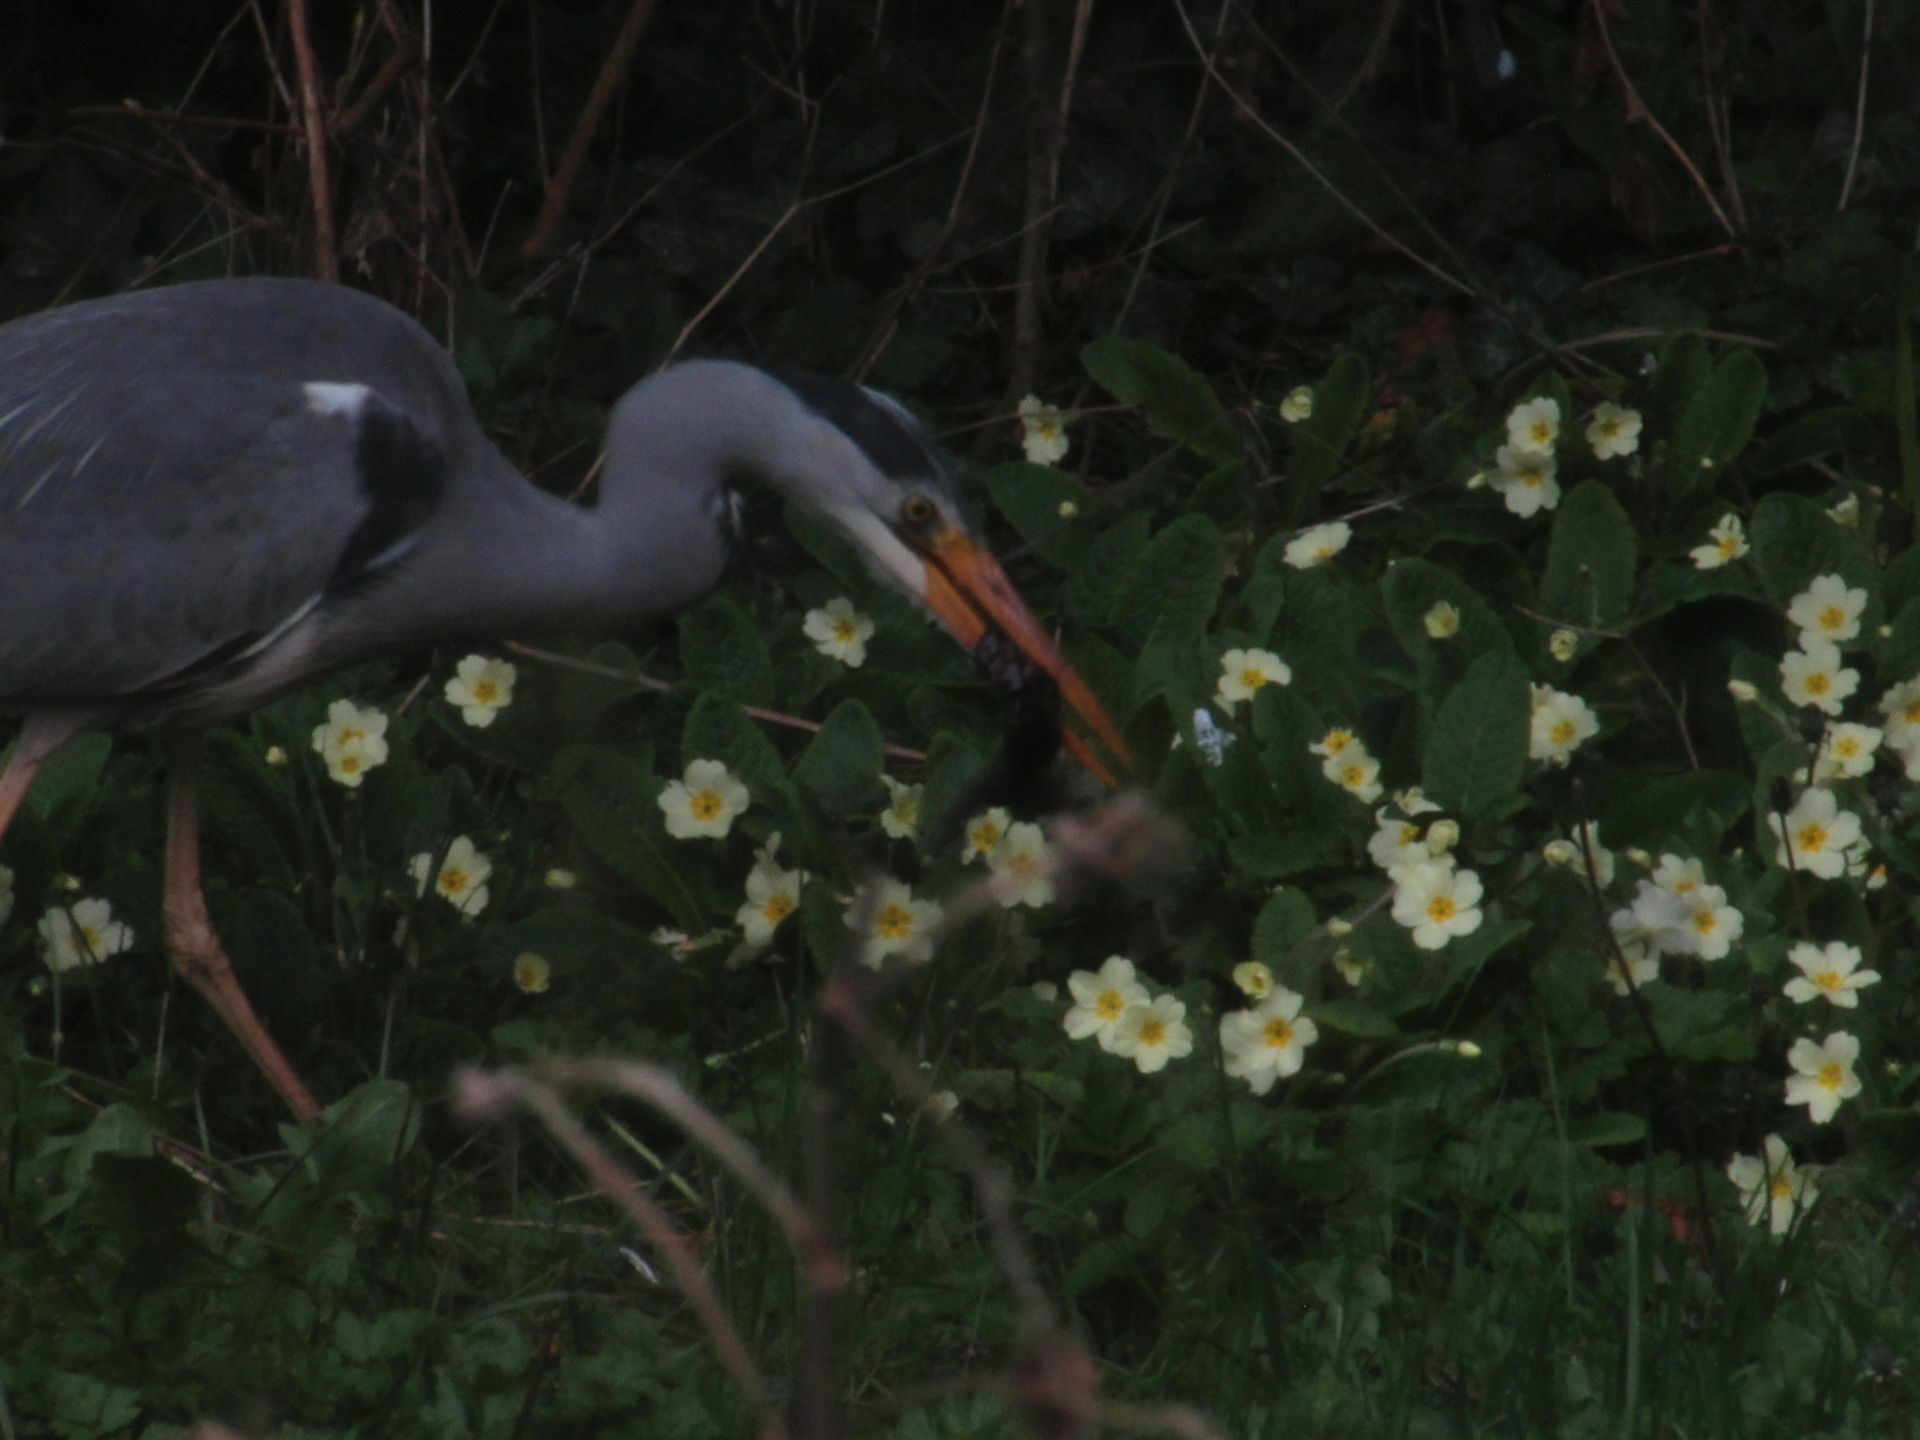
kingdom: Animalia
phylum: Chordata
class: Aves
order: Pelecaniformes
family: Ardeidae
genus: Ardea
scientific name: Ardea cinerea
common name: Grey heron
